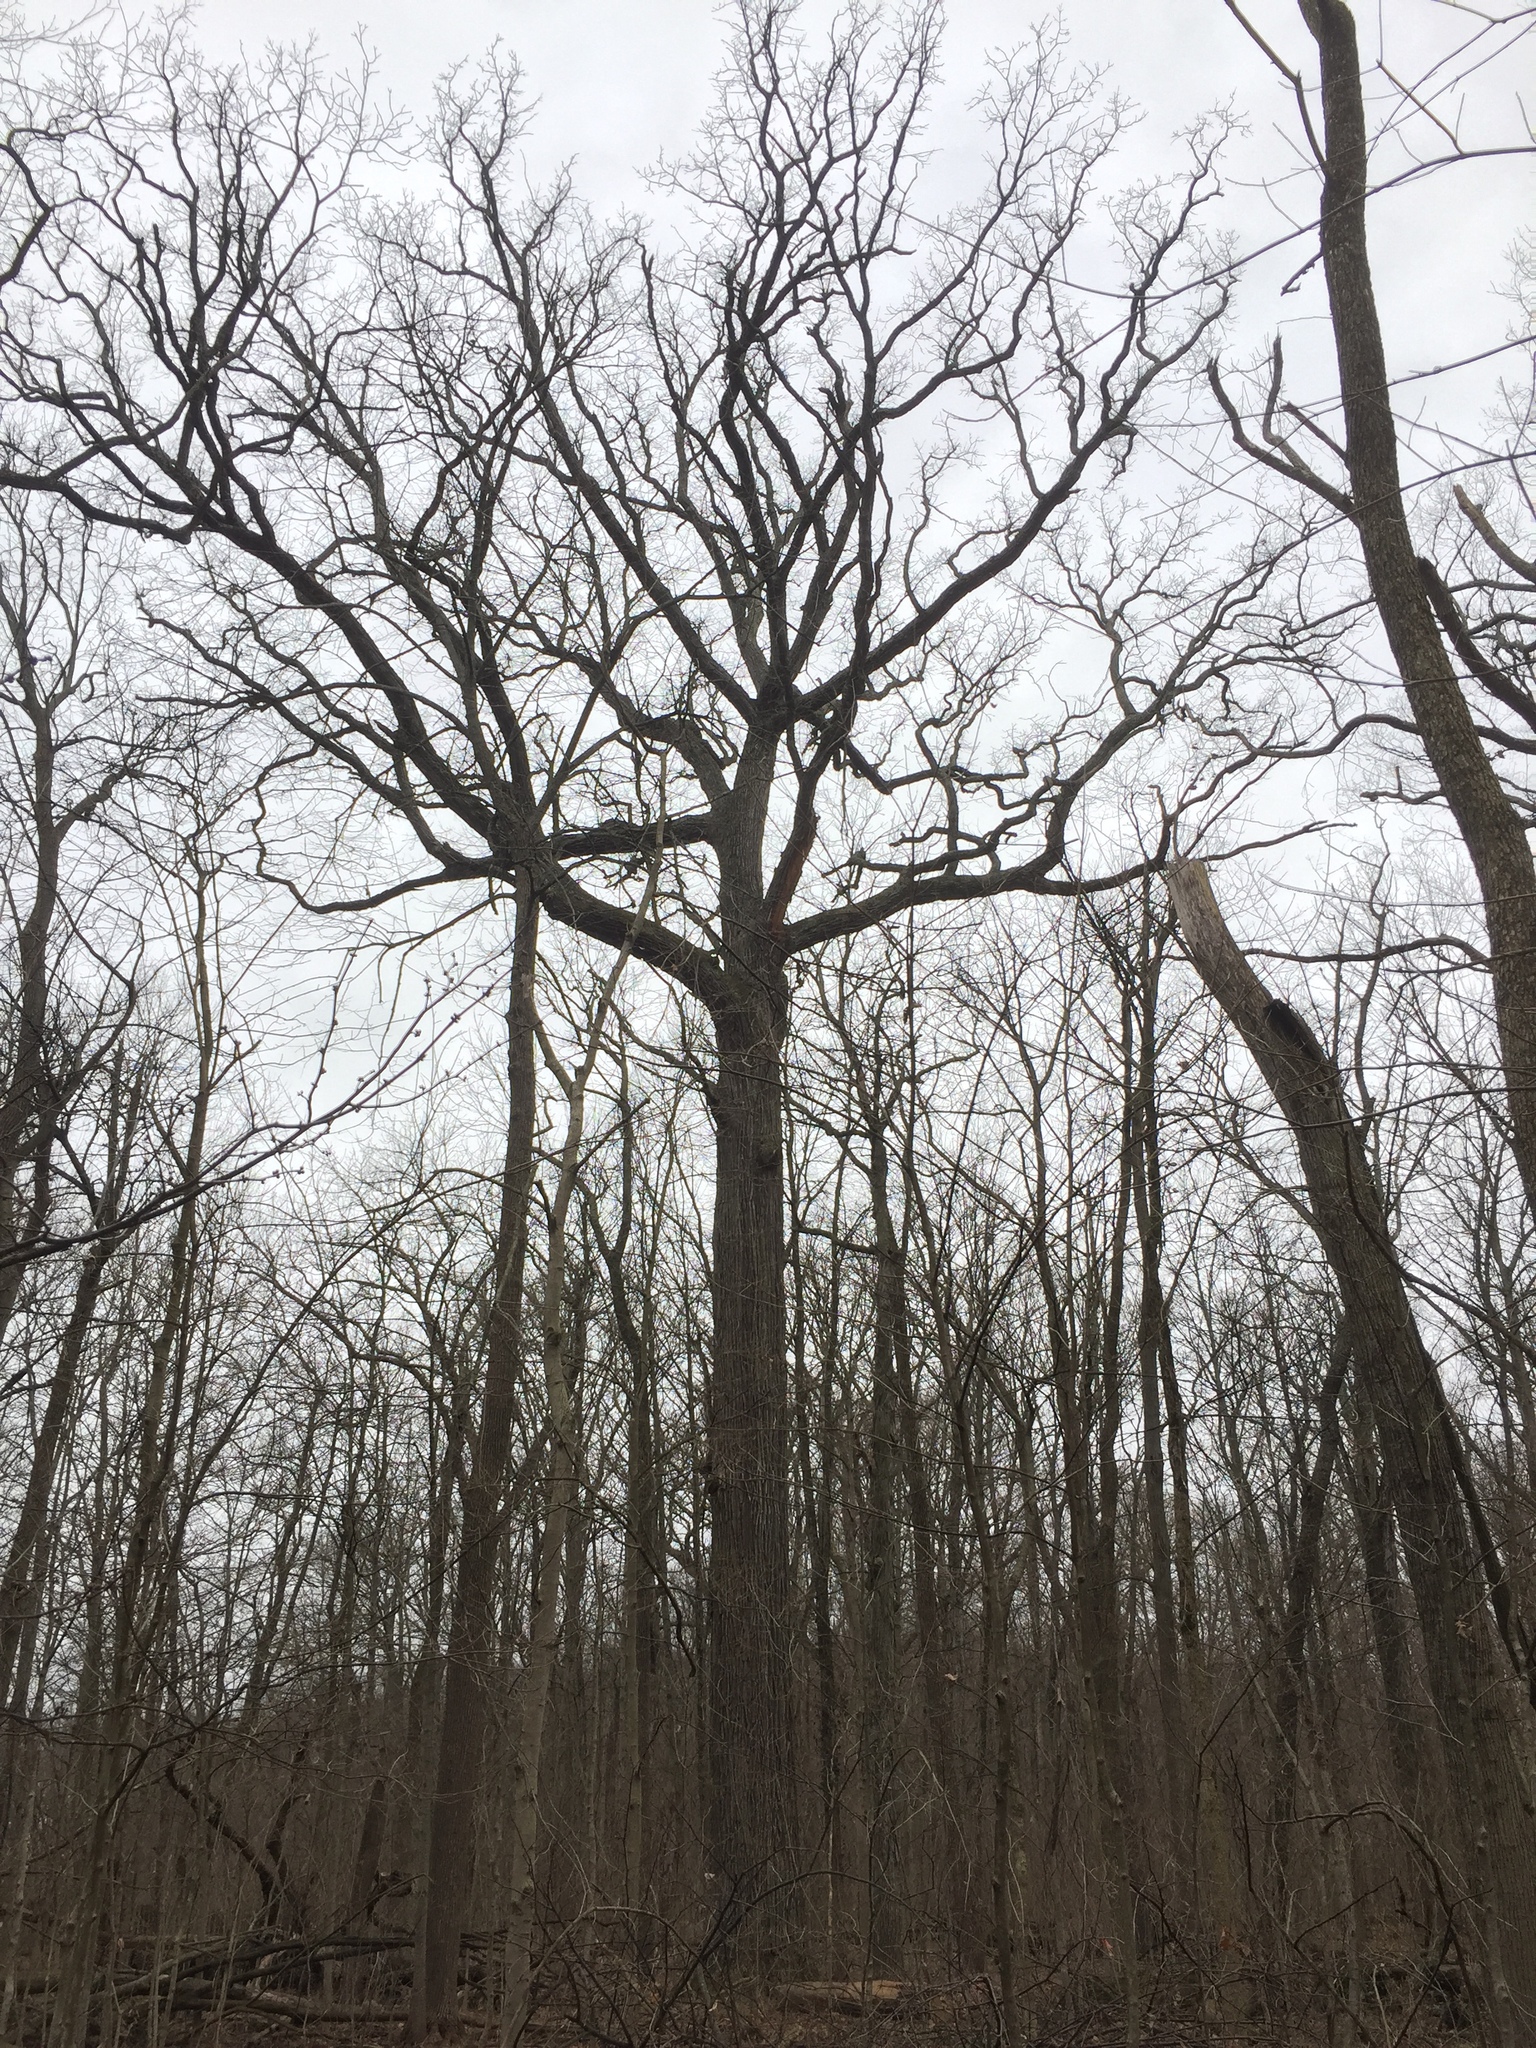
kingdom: Plantae
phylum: Tracheophyta
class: Magnoliopsida
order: Fagales
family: Fagaceae
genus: Quercus
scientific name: Quercus macrocarpa
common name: Bur oak
